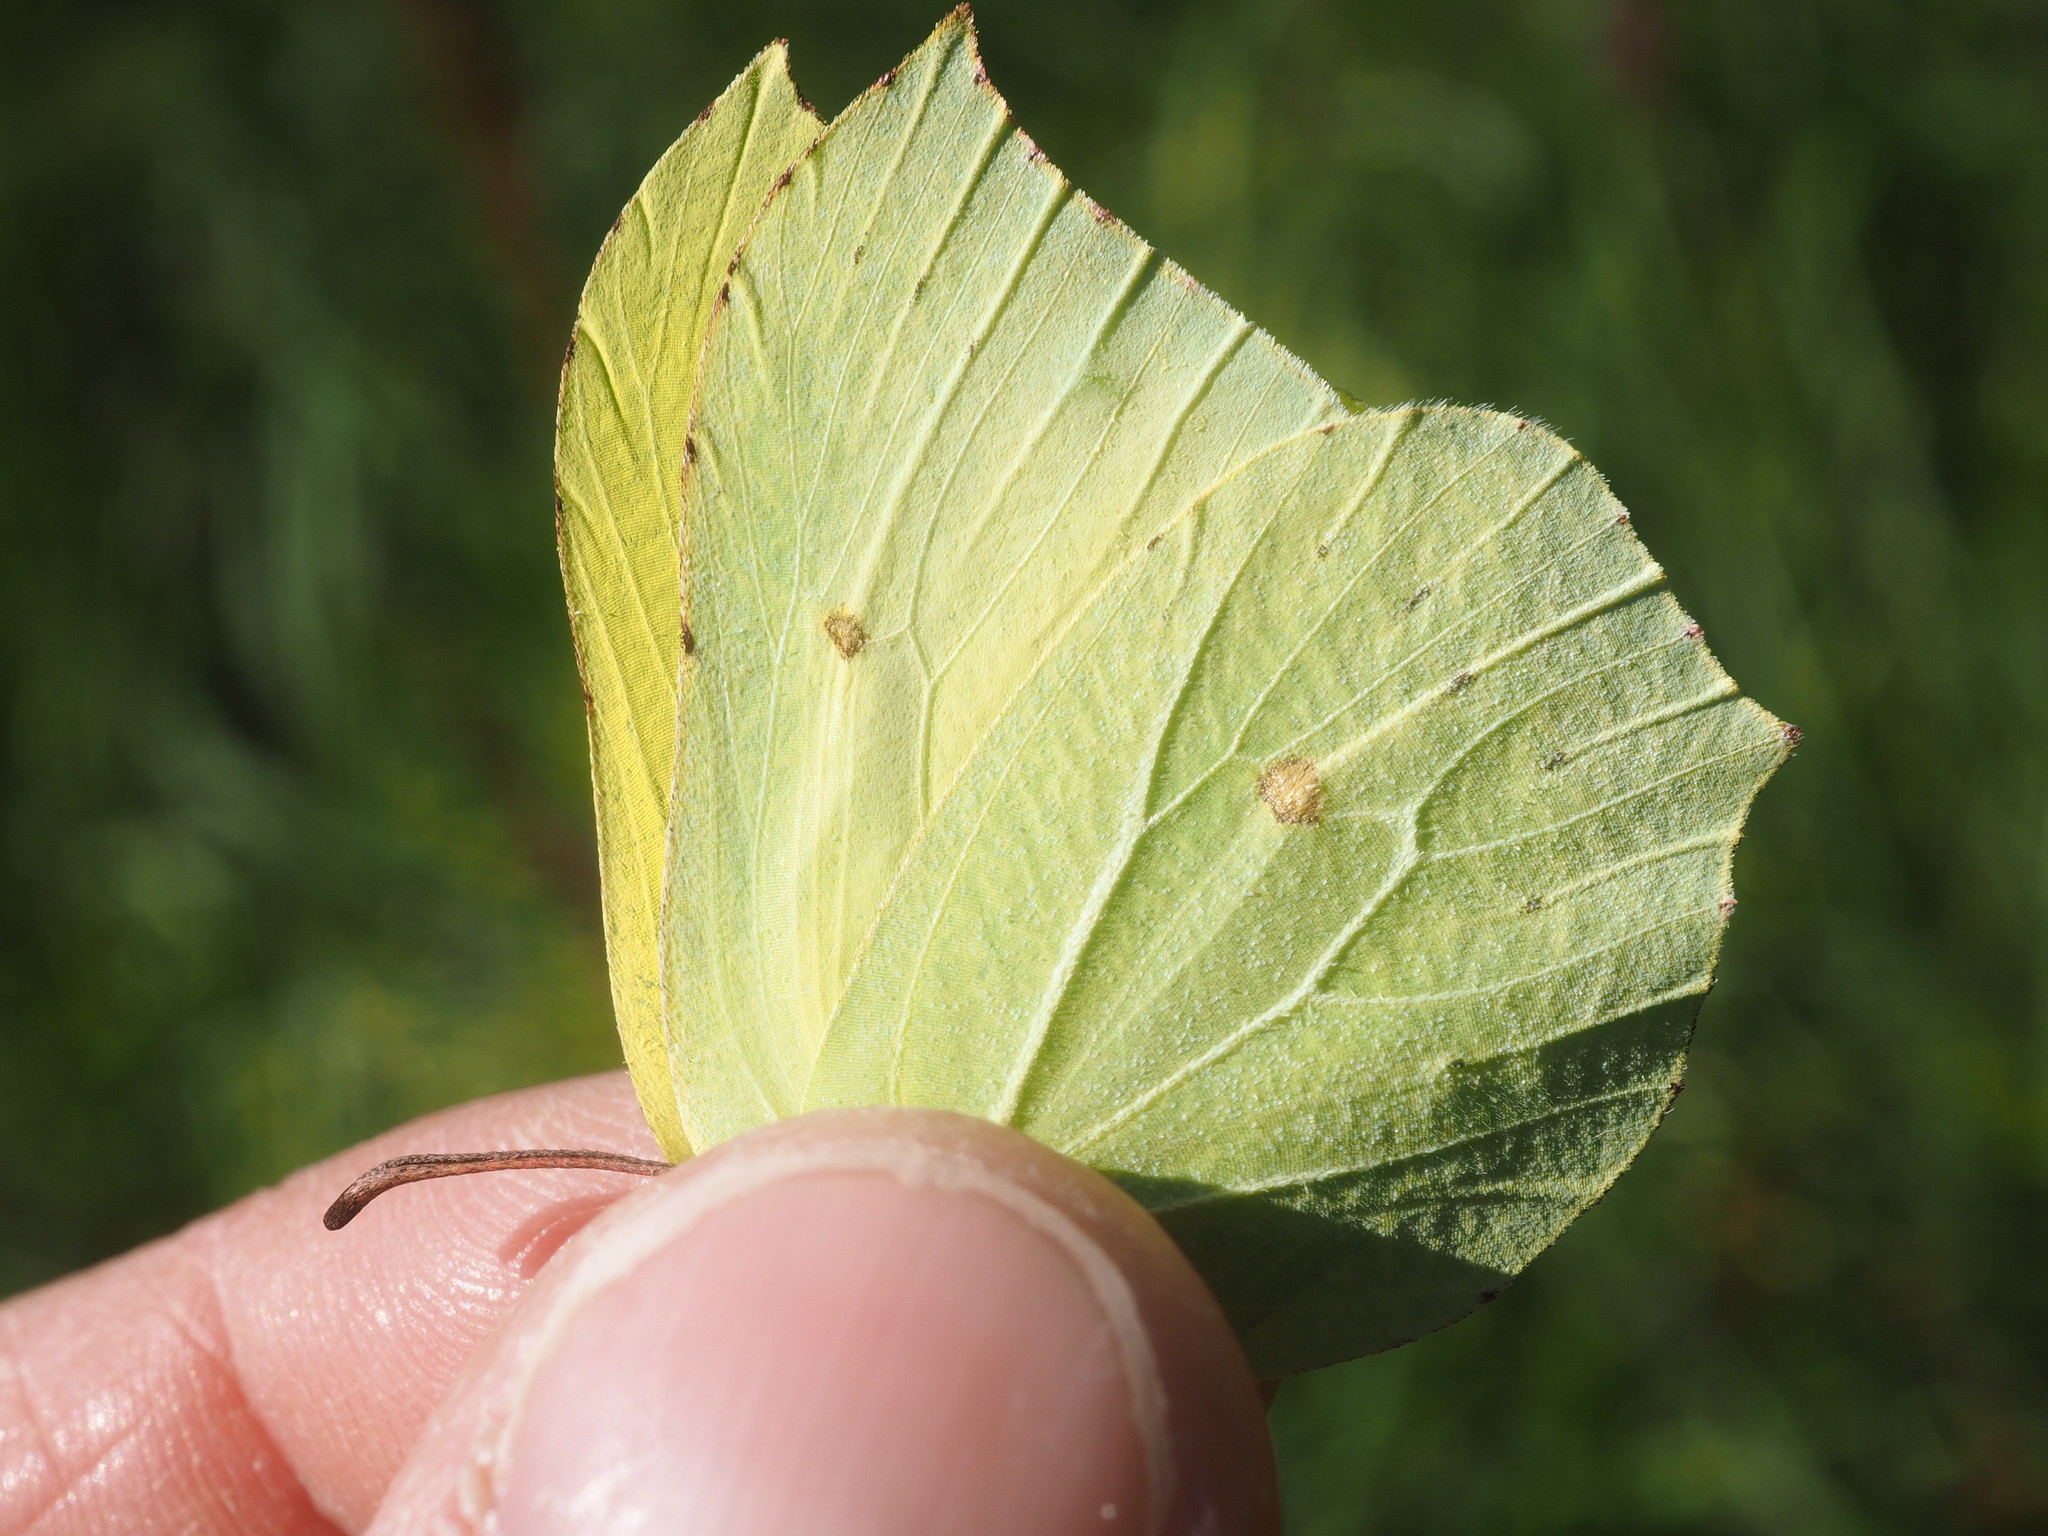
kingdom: Animalia
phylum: Arthropoda
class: Insecta
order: Lepidoptera
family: Pieridae
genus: Gonepteryx
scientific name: Gonepteryx rhamni
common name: Brimstone
